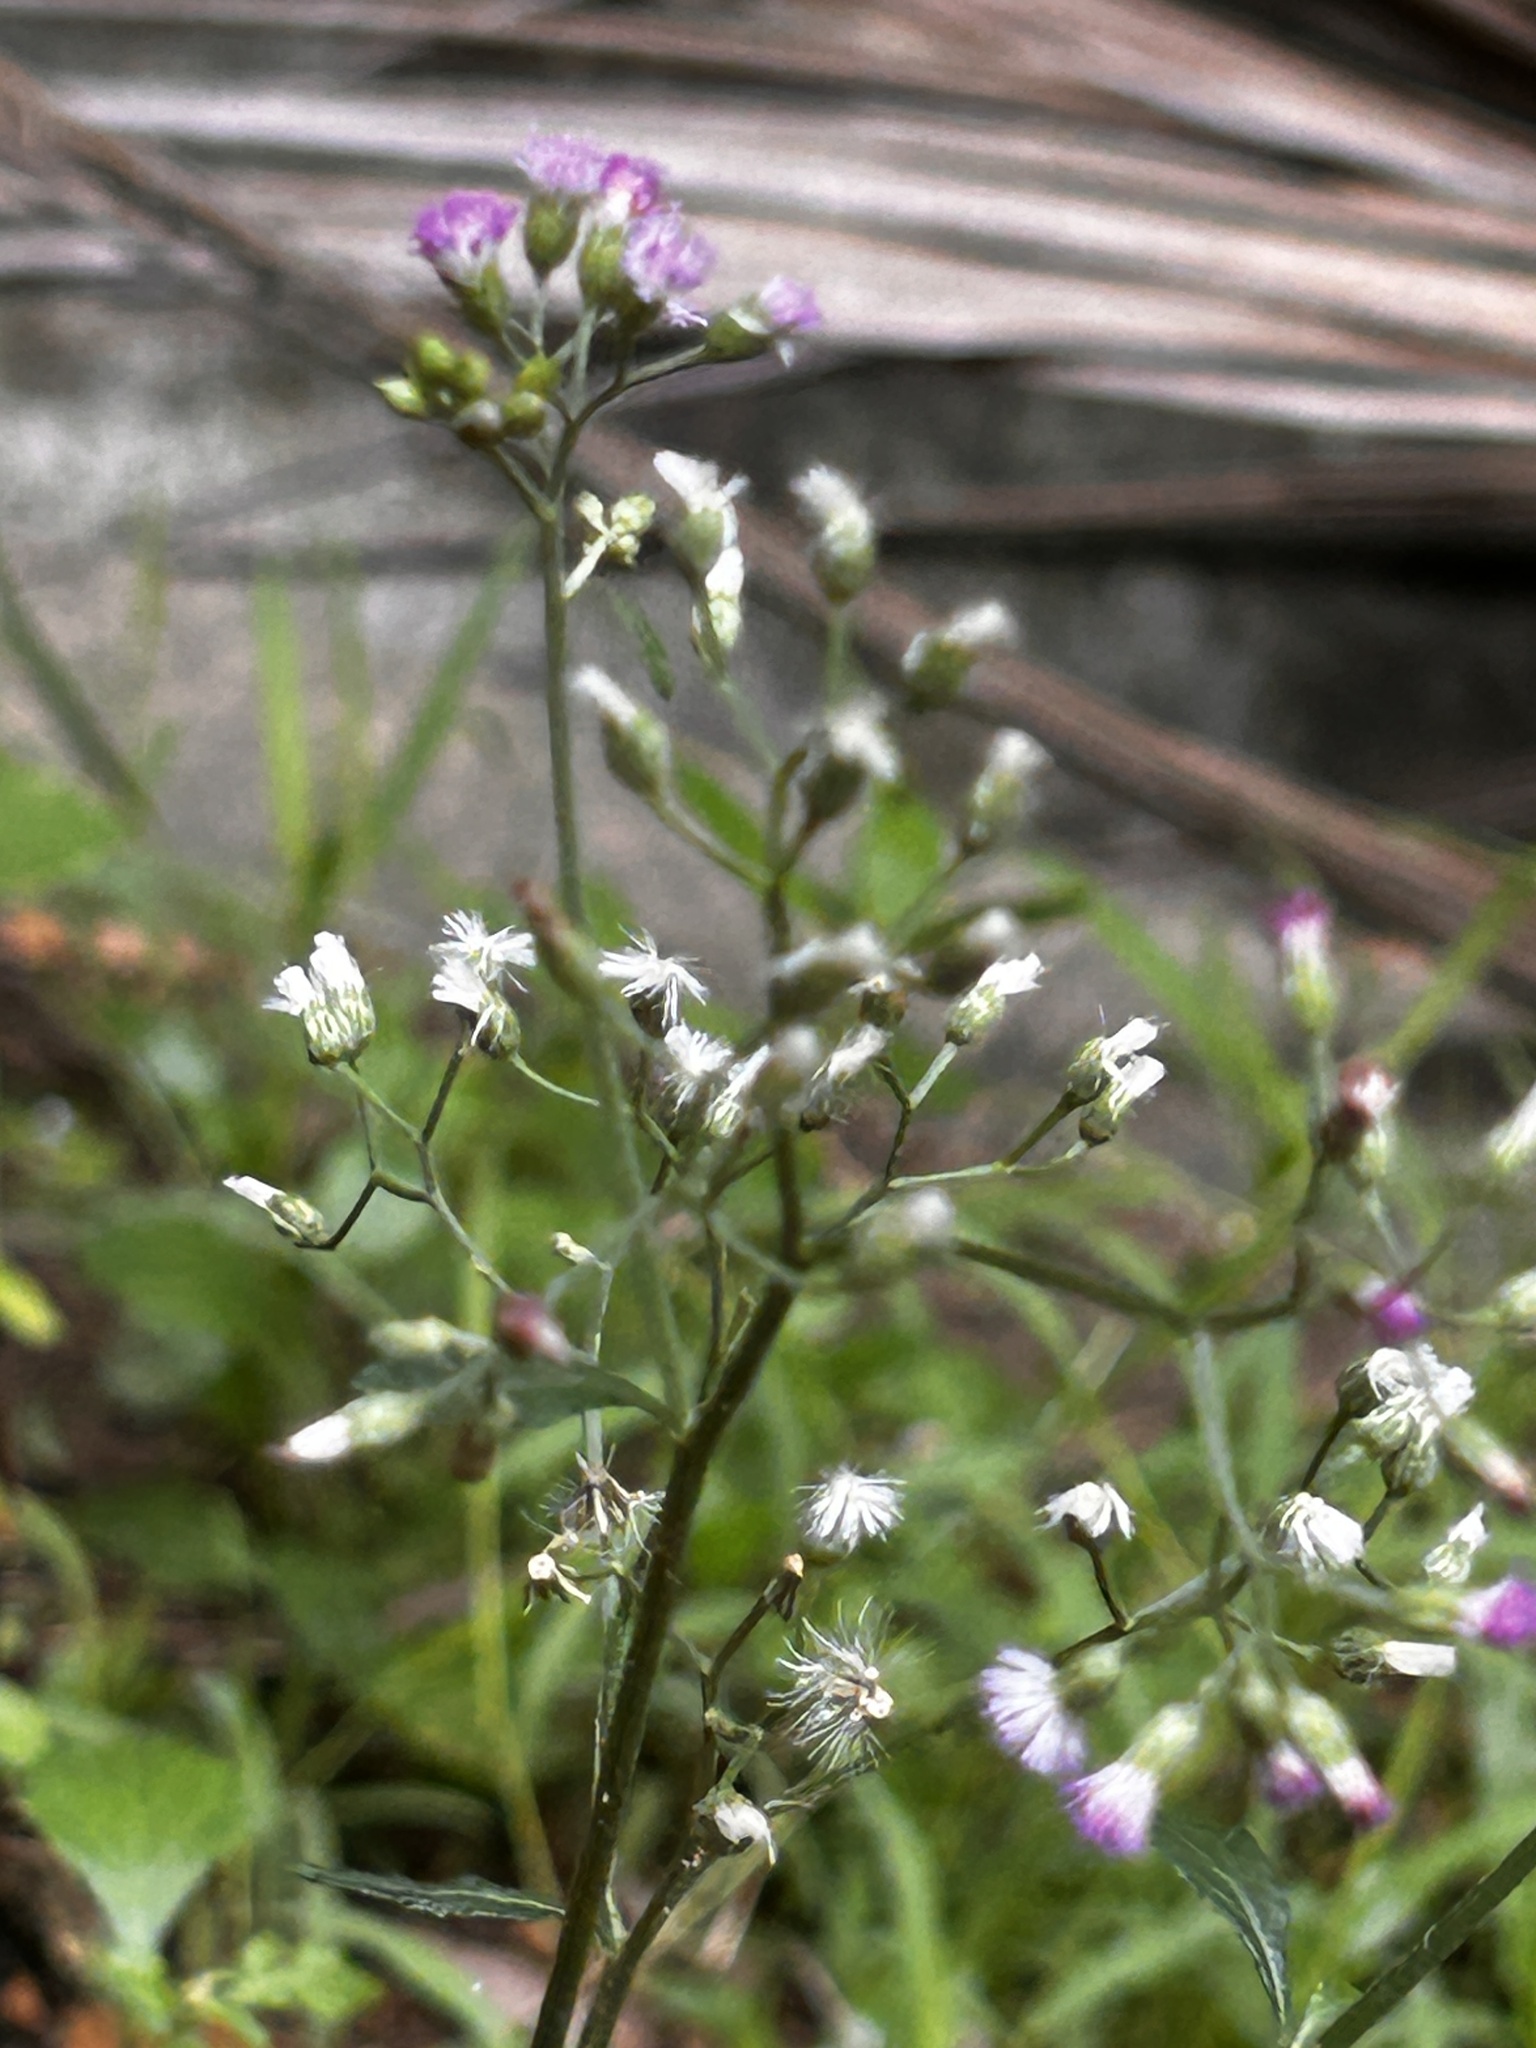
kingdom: Plantae
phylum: Tracheophyta
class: Magnoliopsida
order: Asterales
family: Asteraceae
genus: Cyanthillium
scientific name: Cyanthillium cinereum
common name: Little ironweed
